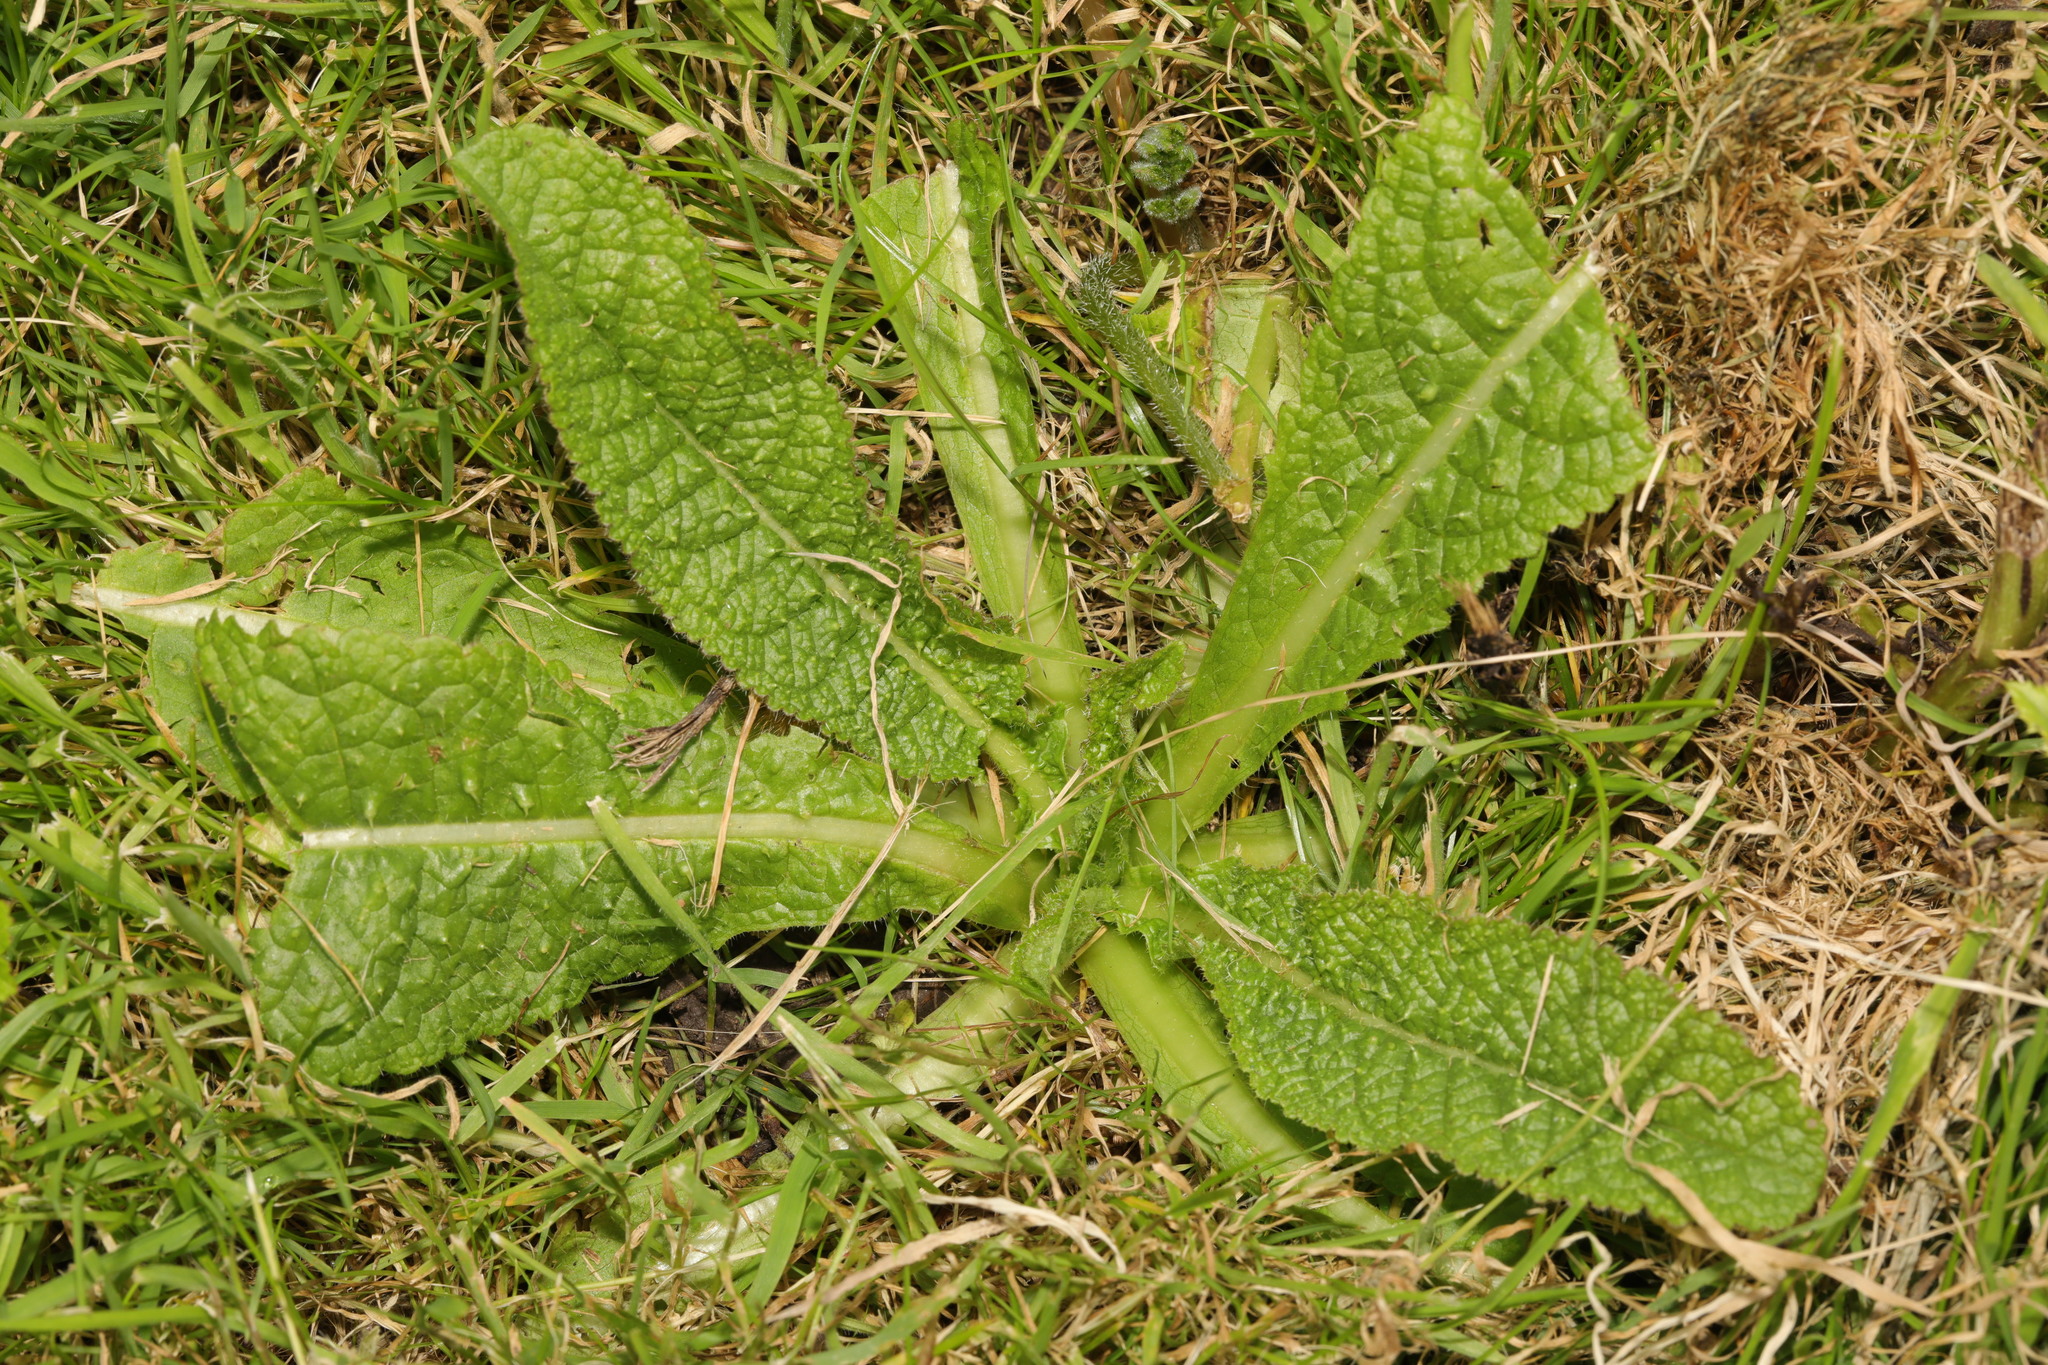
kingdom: Plantae
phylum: Tracheophyta
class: Magnoliopsida
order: Dipsacales
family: Caprifoliaceae
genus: Dipsacus
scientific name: Dipsacus fullonum
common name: Teasel
